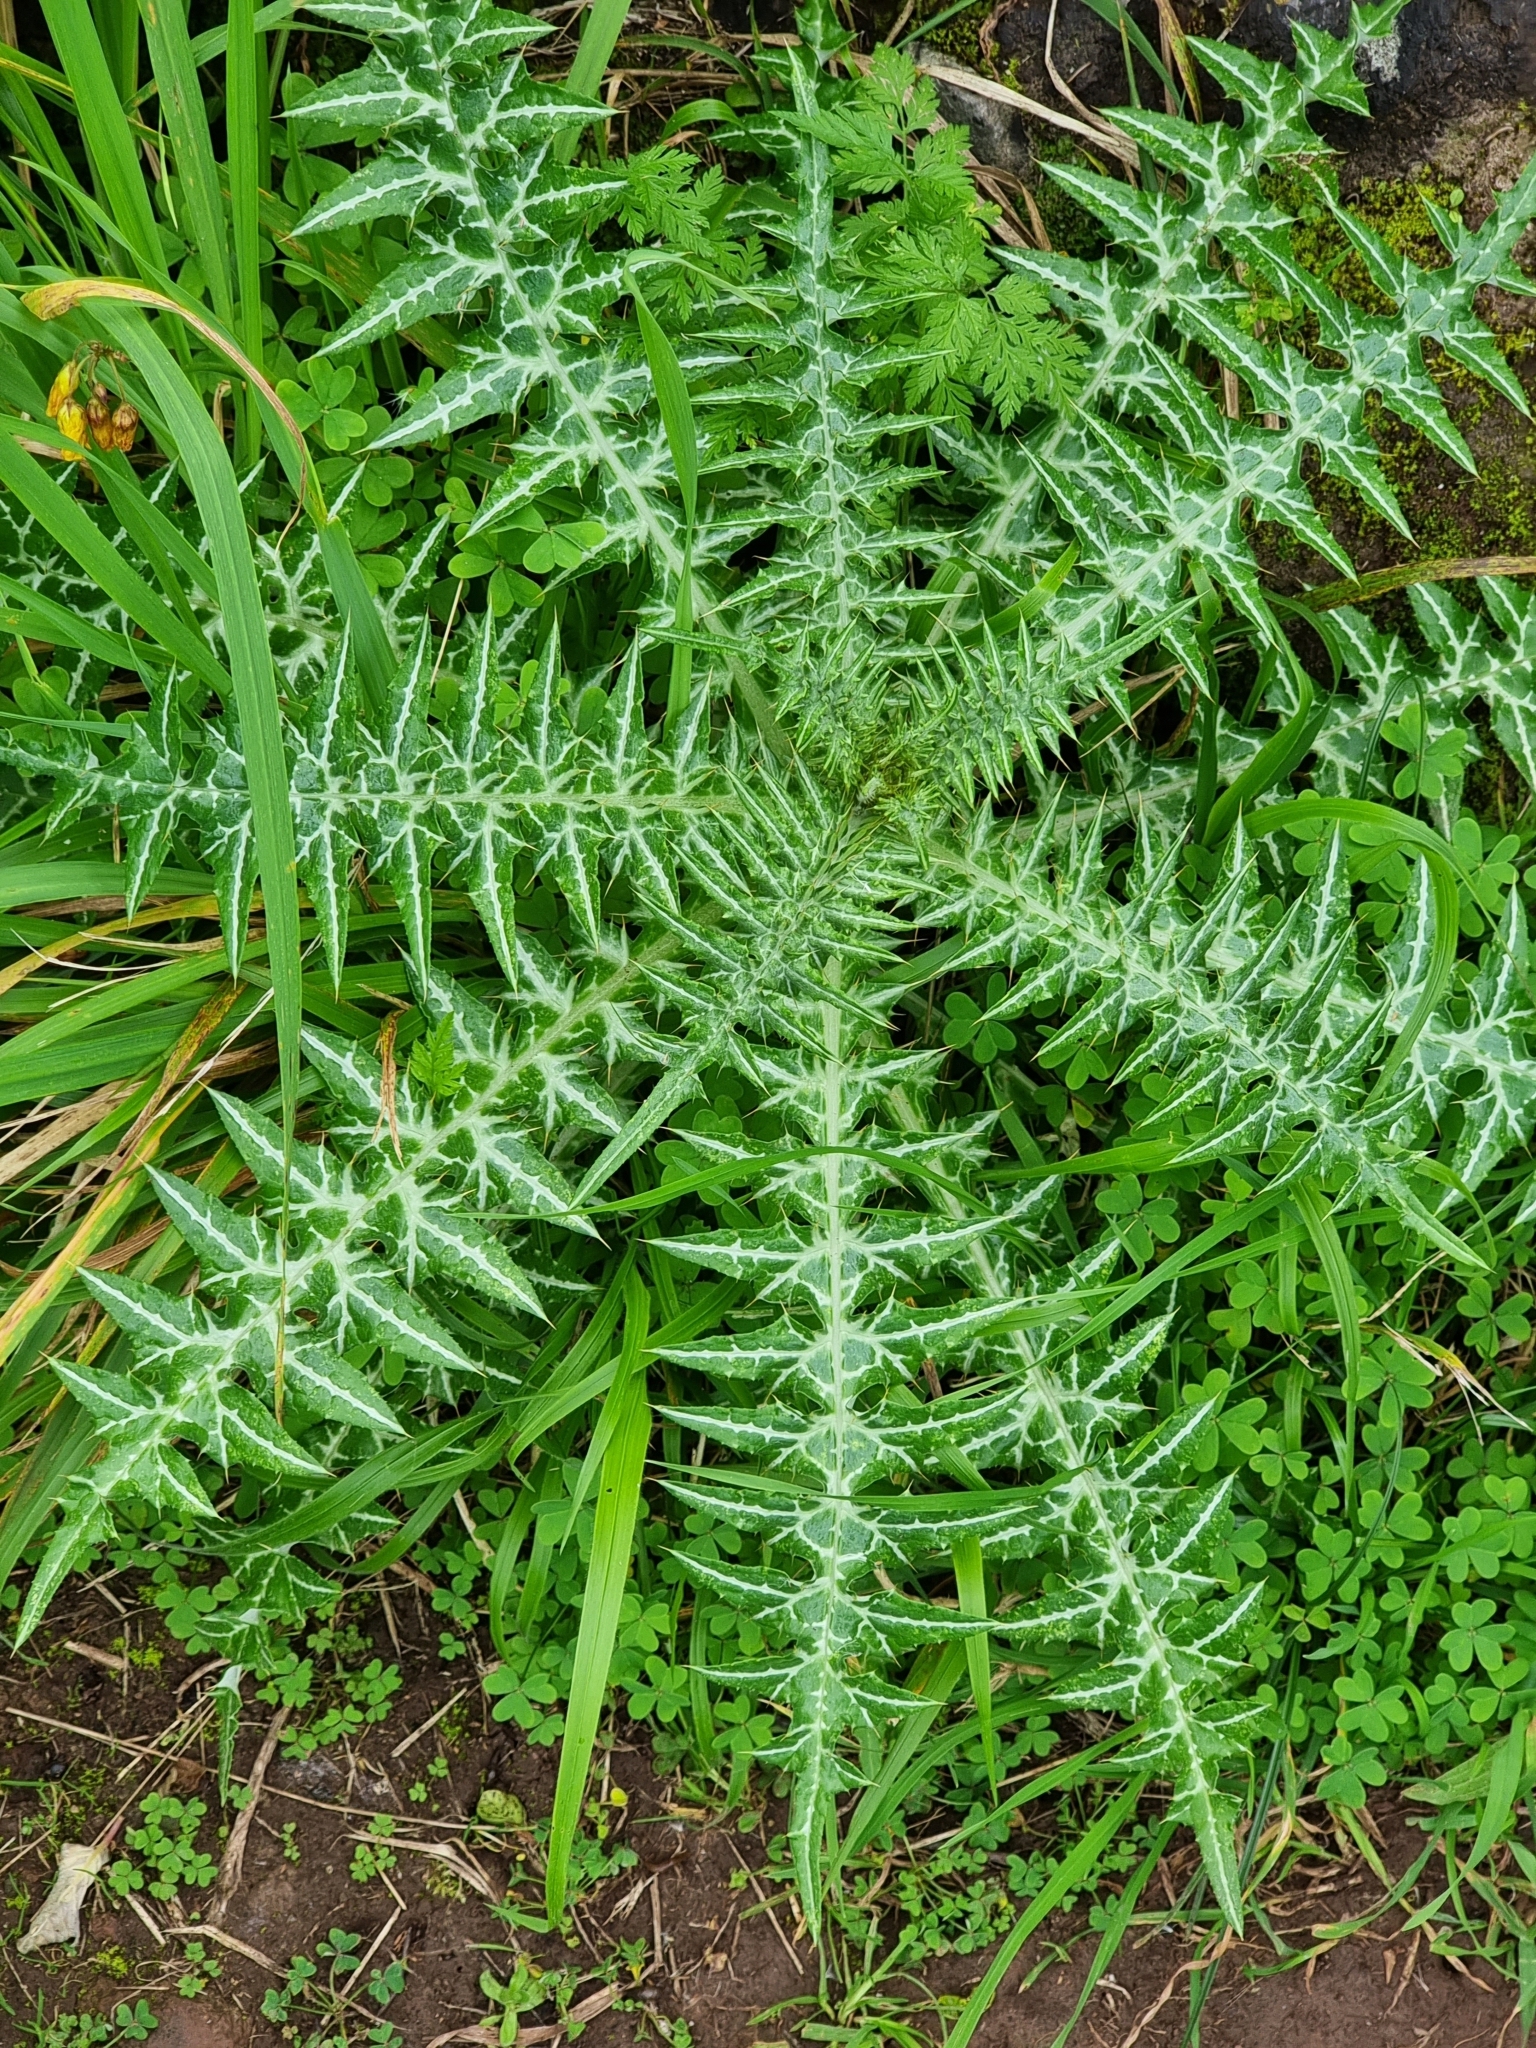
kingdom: Plantae
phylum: Tracheophyta
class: Magnoliopsida
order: Asterales
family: Asteraceae
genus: Galactites
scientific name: Galactites tomentosa
